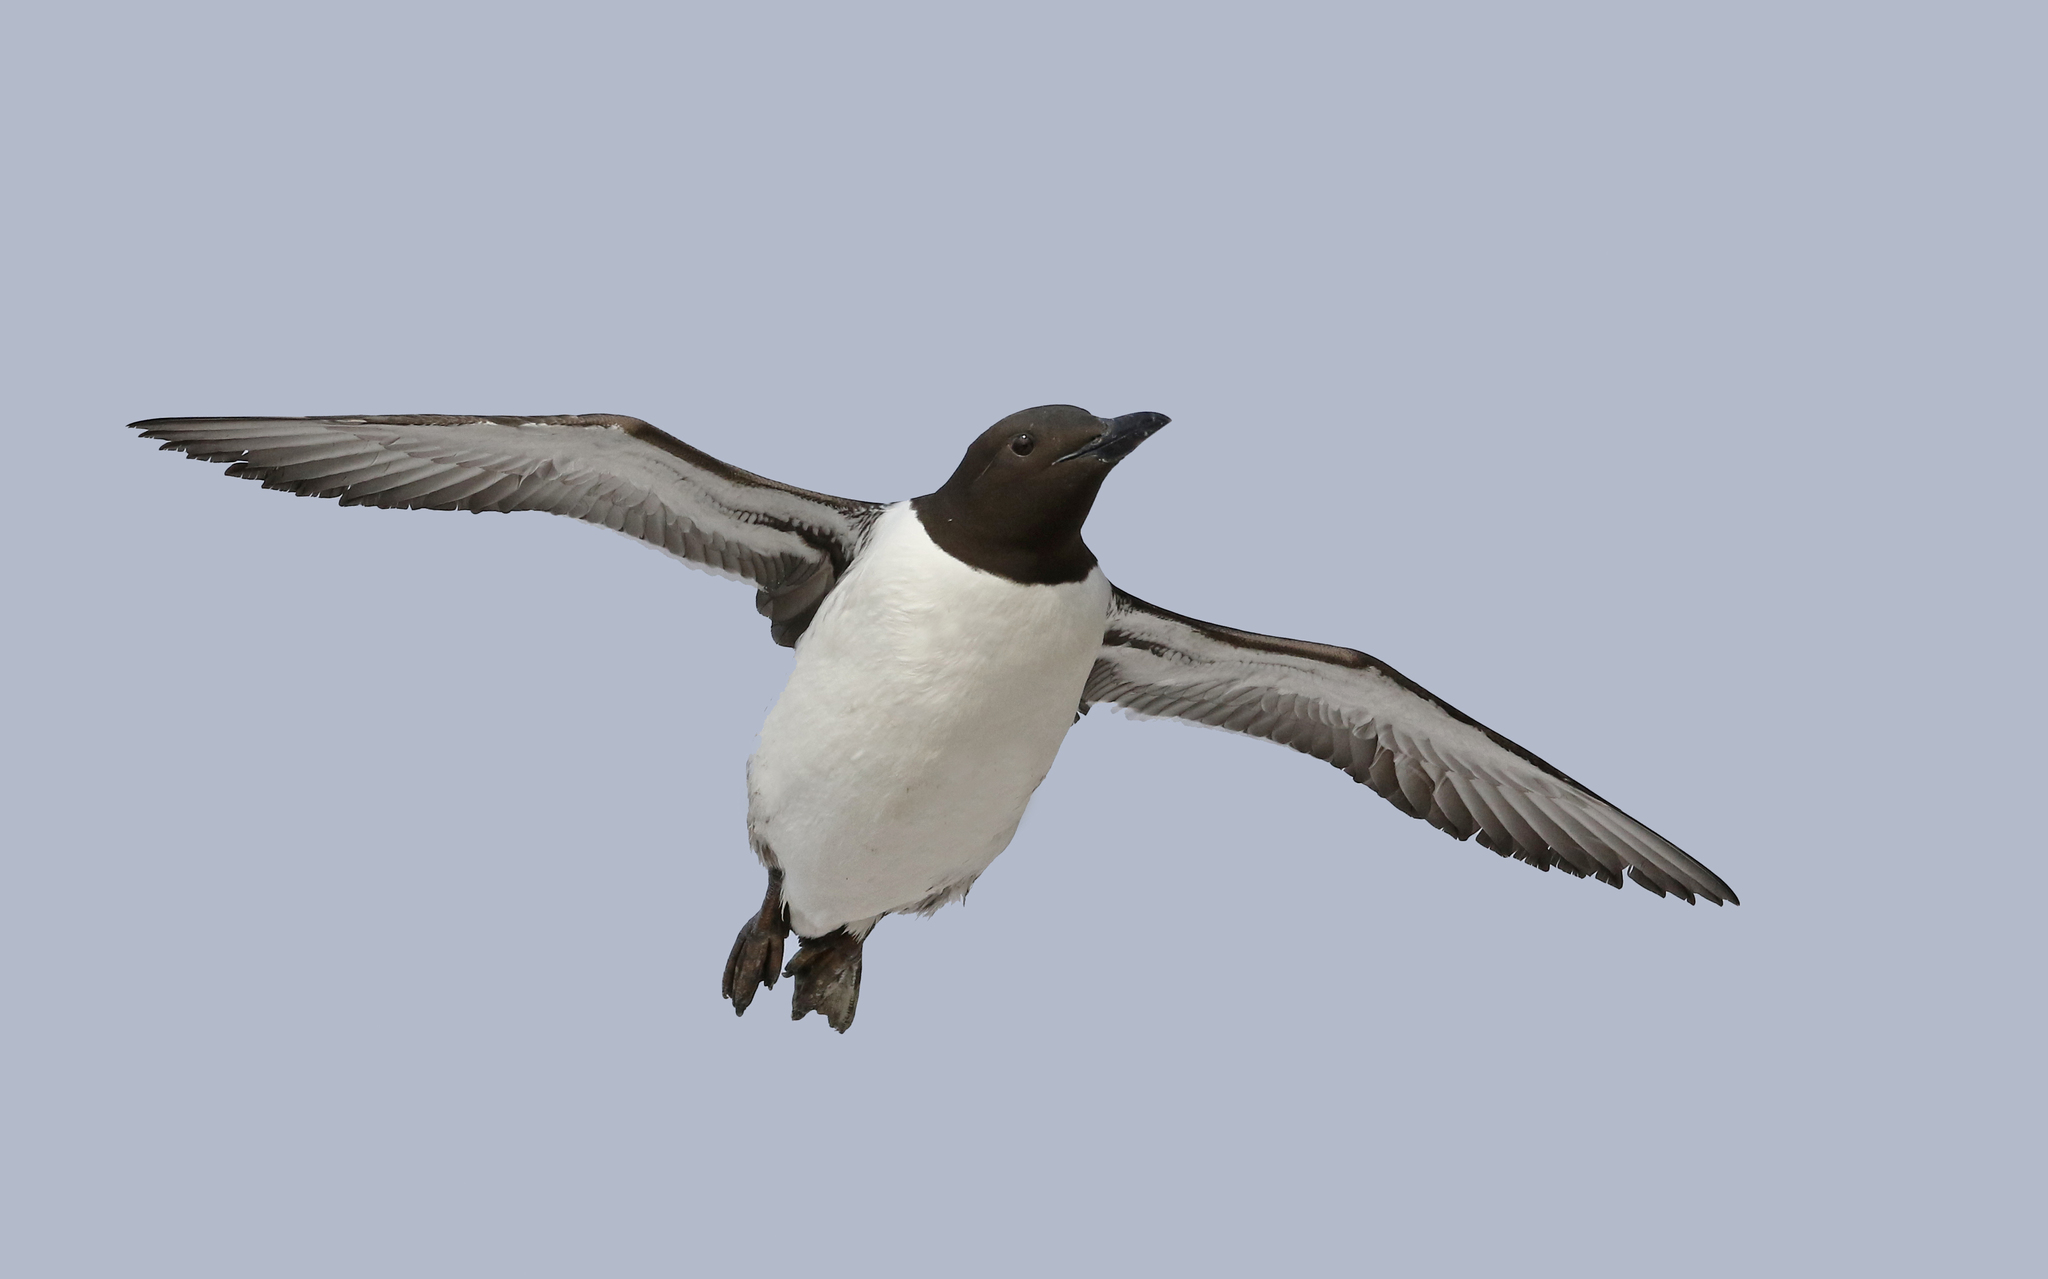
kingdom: Animalia
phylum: Chordata
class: Aves
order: Charadriiformes
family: Alcidae
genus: Uria
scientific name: Uria aalge
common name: Common murre
